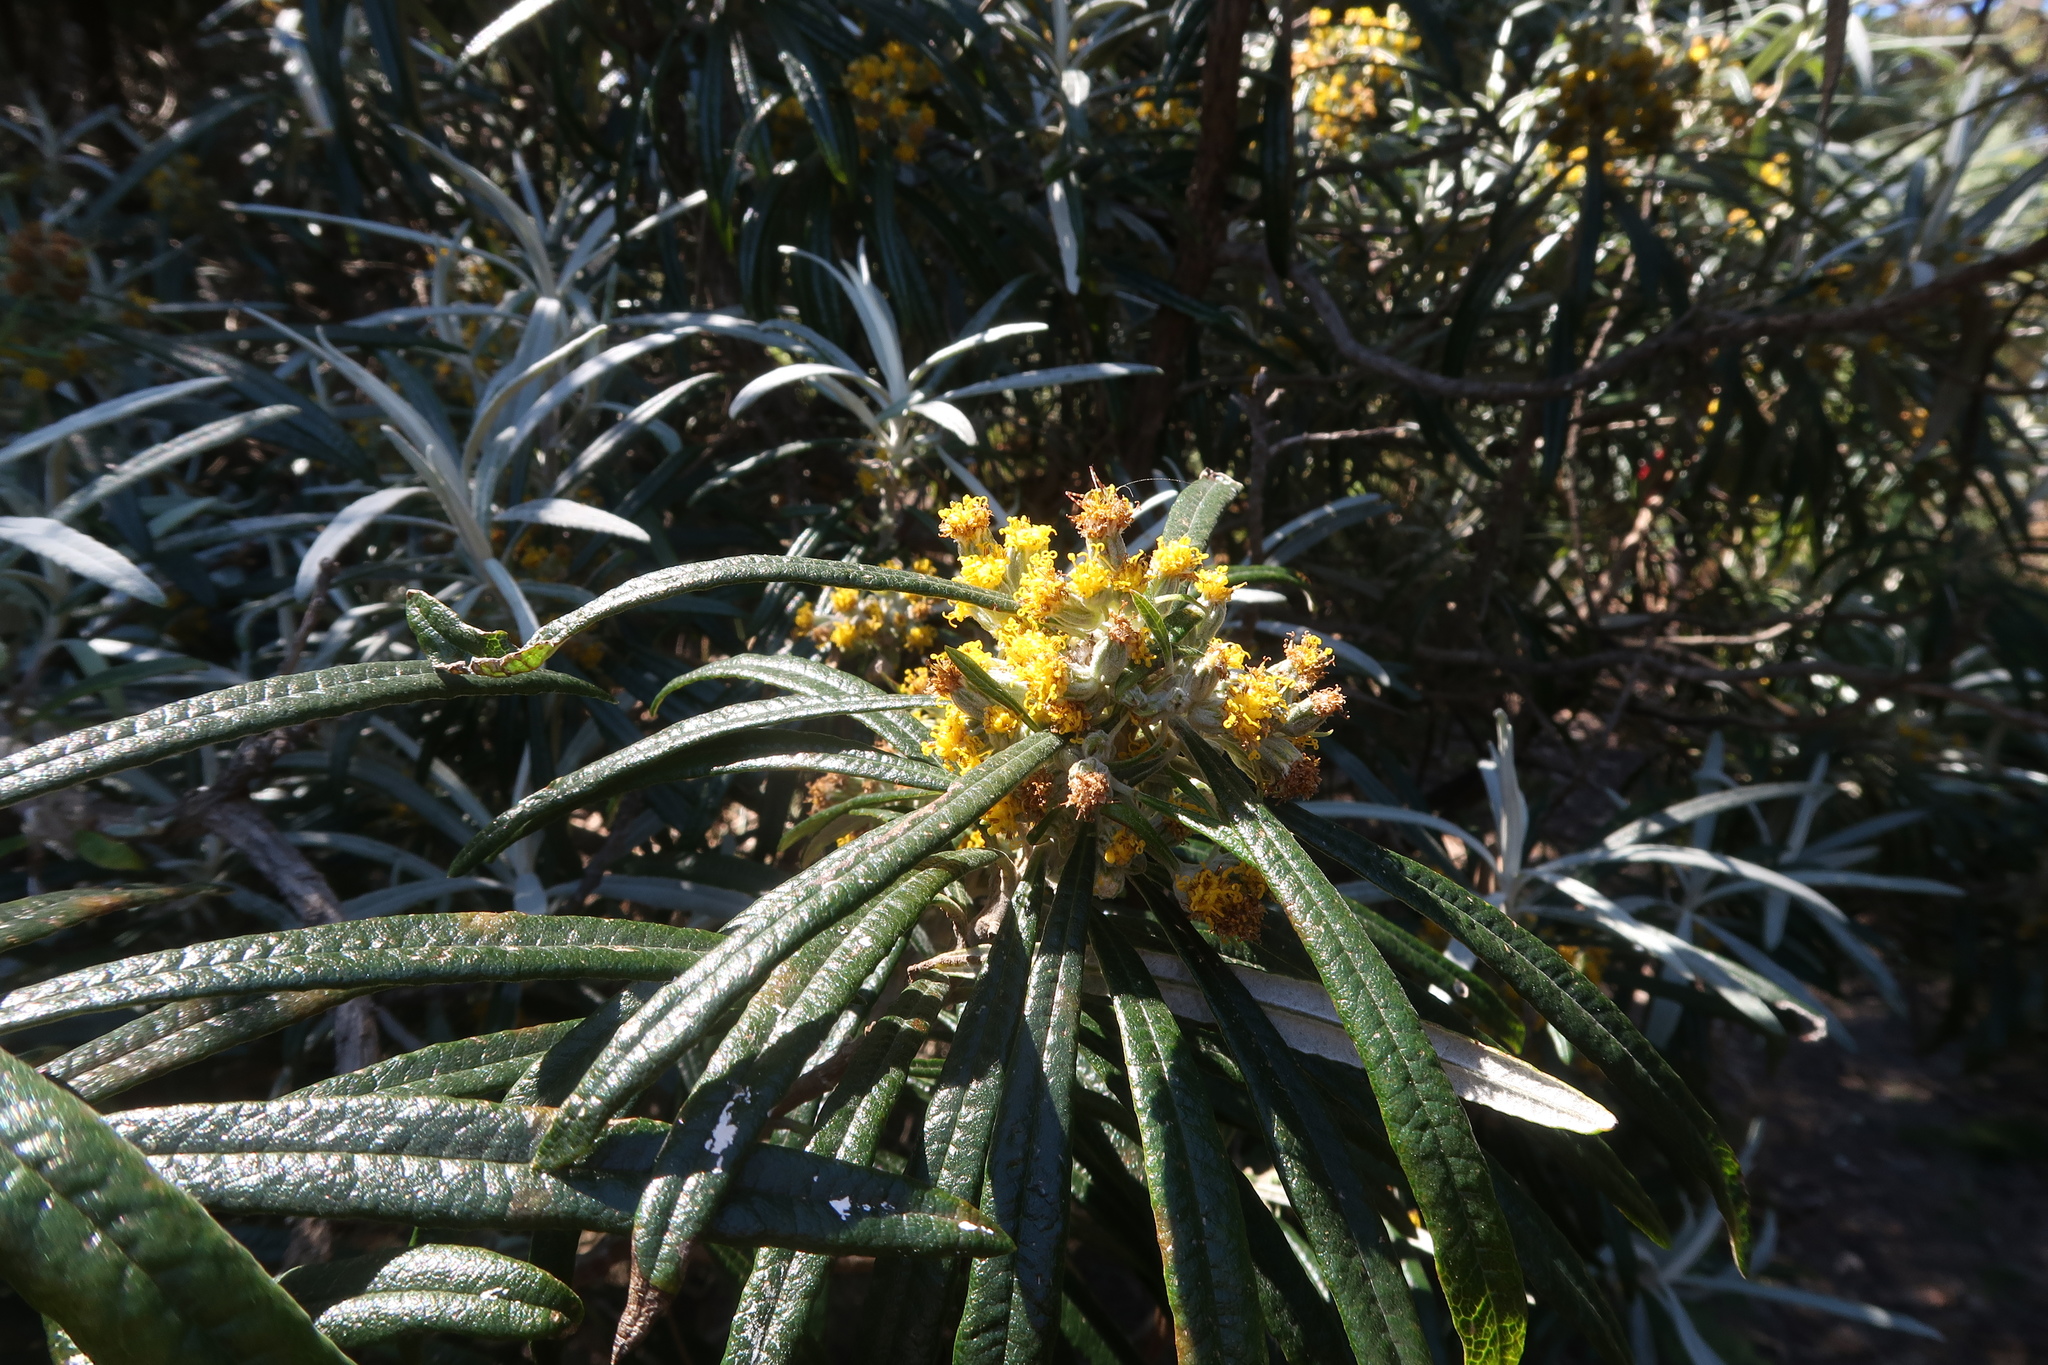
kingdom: Plantae
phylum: Tracheophyta
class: Magnoliopsida
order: Asterales
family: Asteraceae
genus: Bedfordia
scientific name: Bedfordia salicina
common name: Blanketleaf
